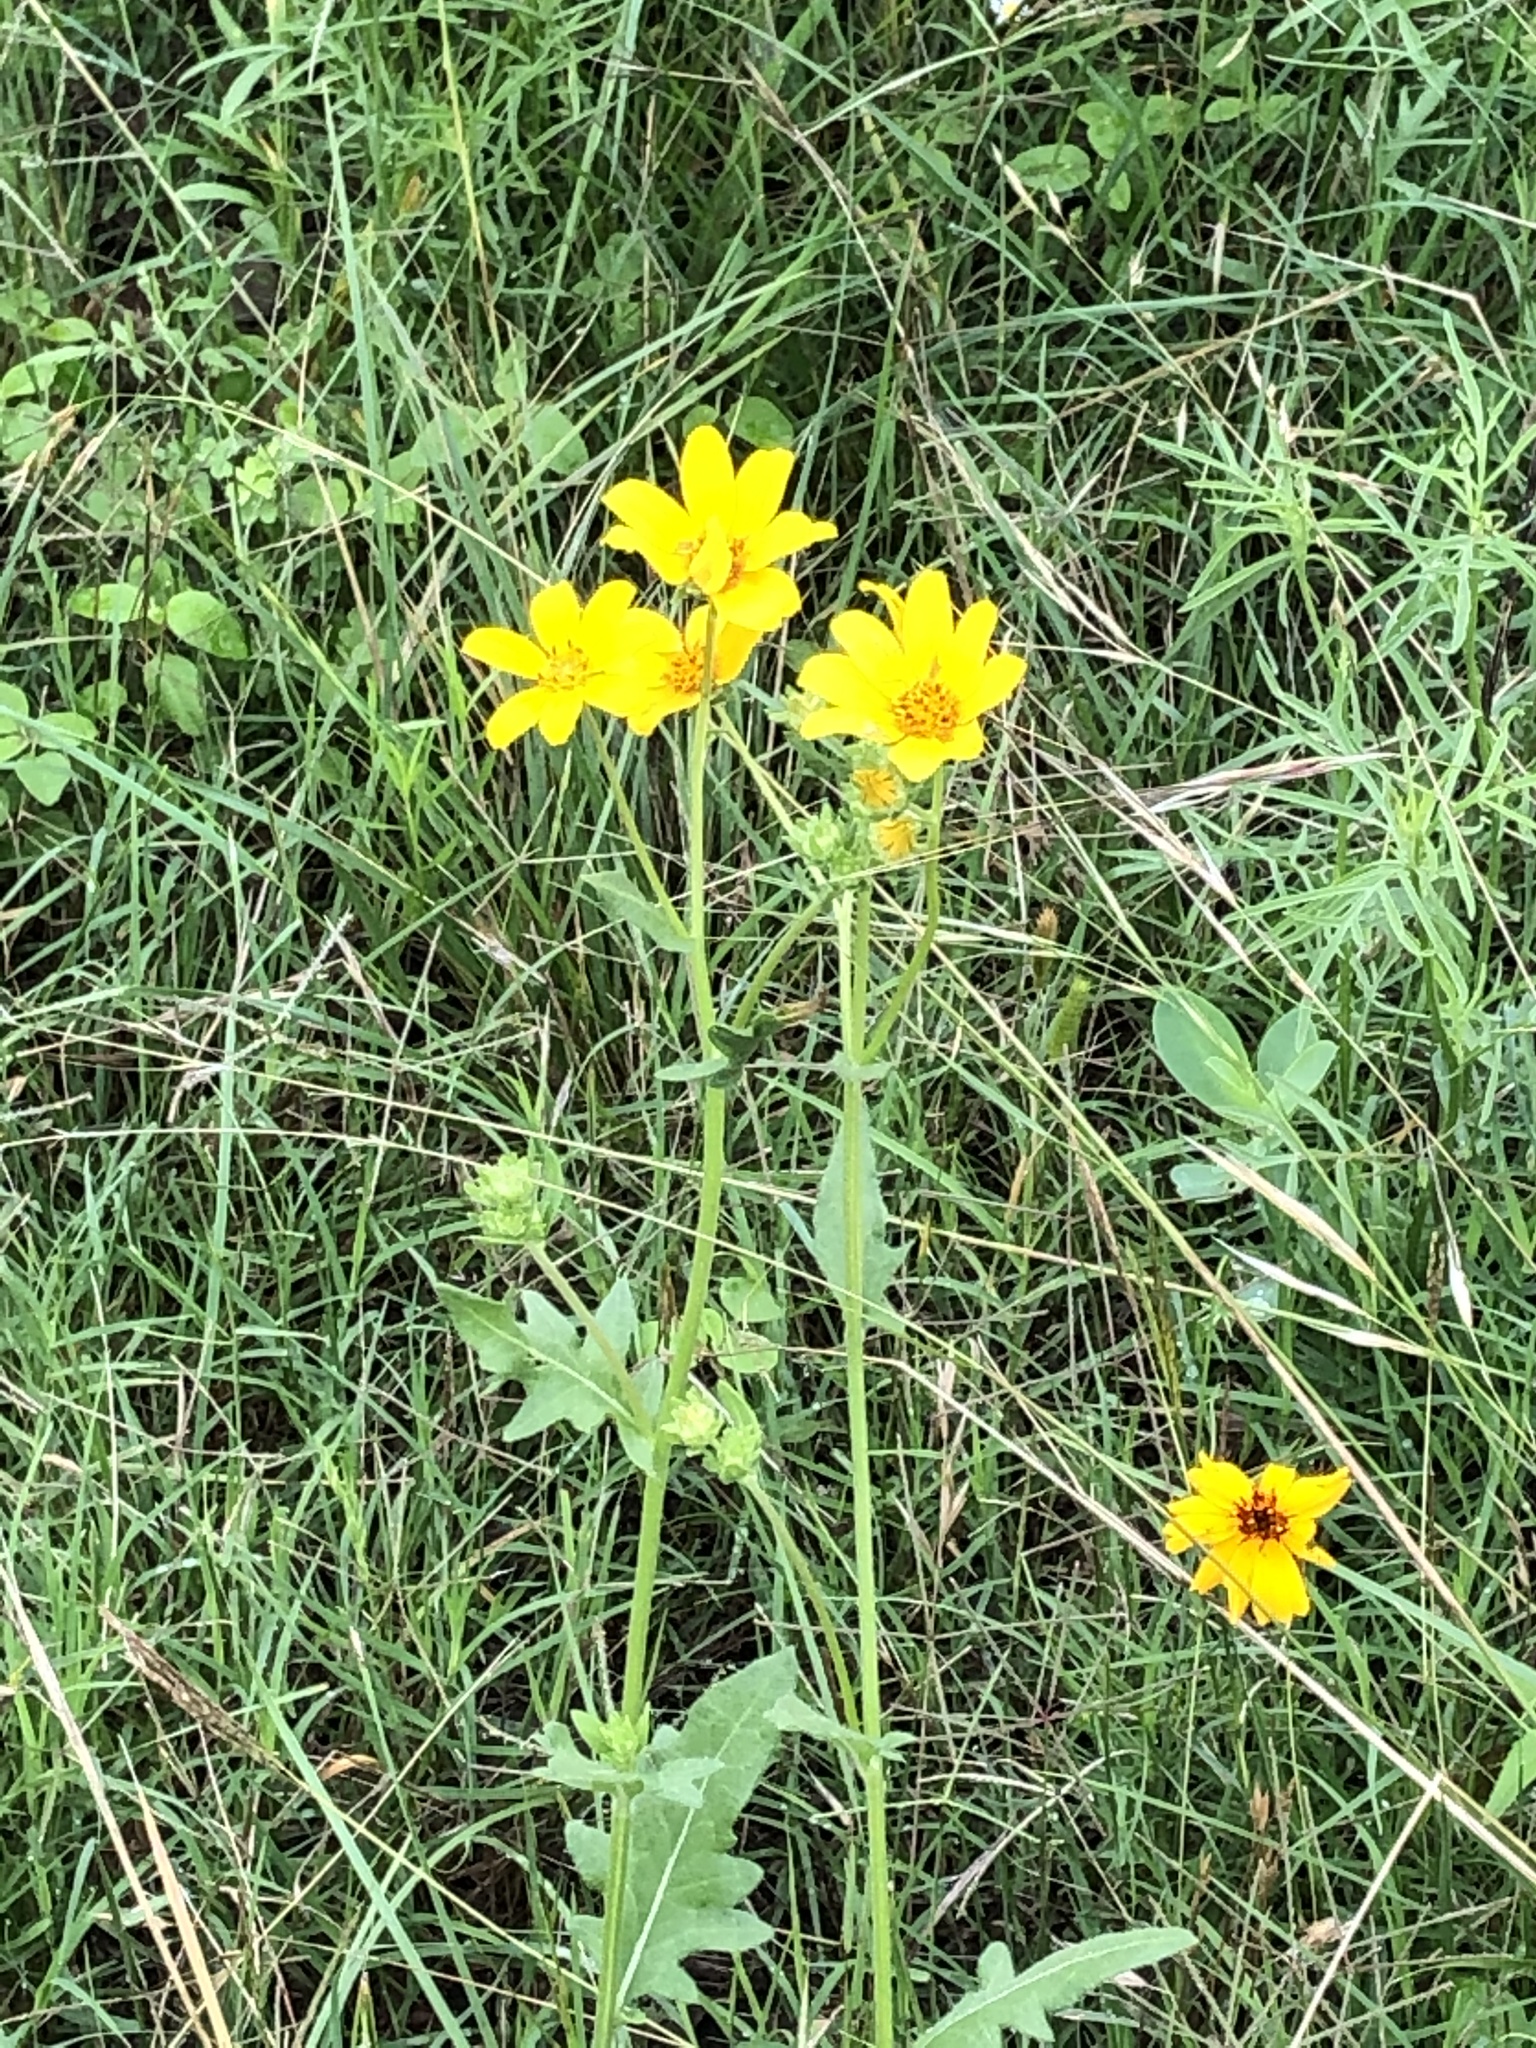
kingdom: Plantae
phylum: Tracheophyta
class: Magnoliopsida
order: Asterales
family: Asteraceae
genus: Engelmannia
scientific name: Engelmannia peristenia
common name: Engelmann's daisy
